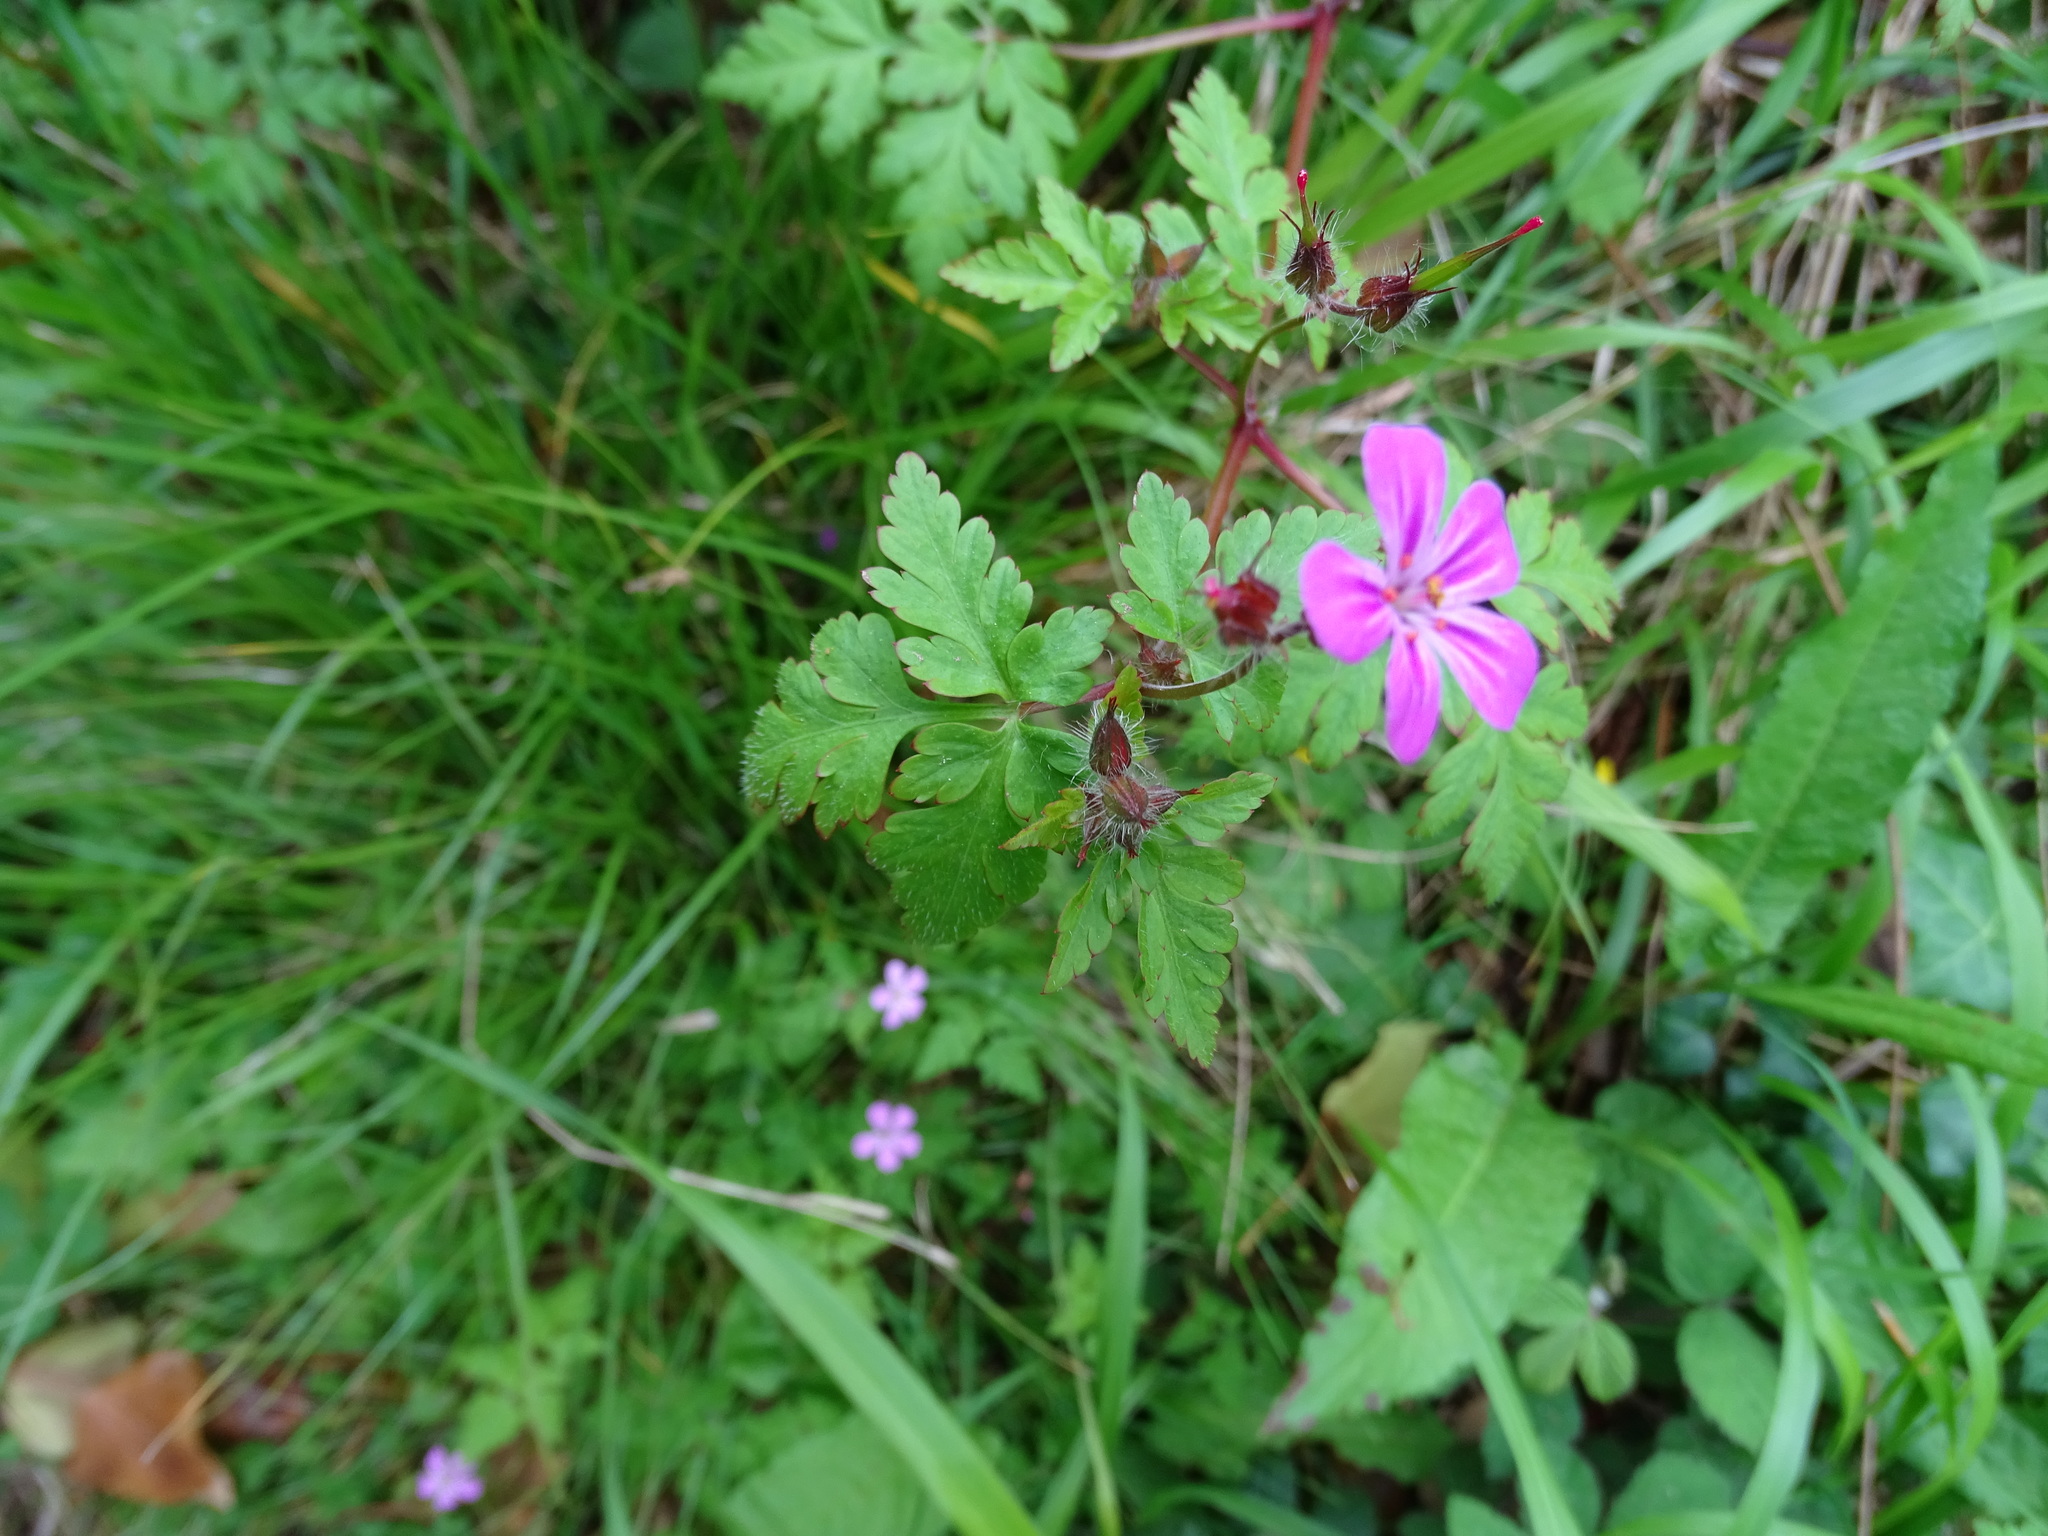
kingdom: Plantae
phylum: Tracheophyta
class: Magnoliopsida
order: Geraniales
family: Geraniaceae
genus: Geranium
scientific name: Geranium robertianum
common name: Herb-robert
